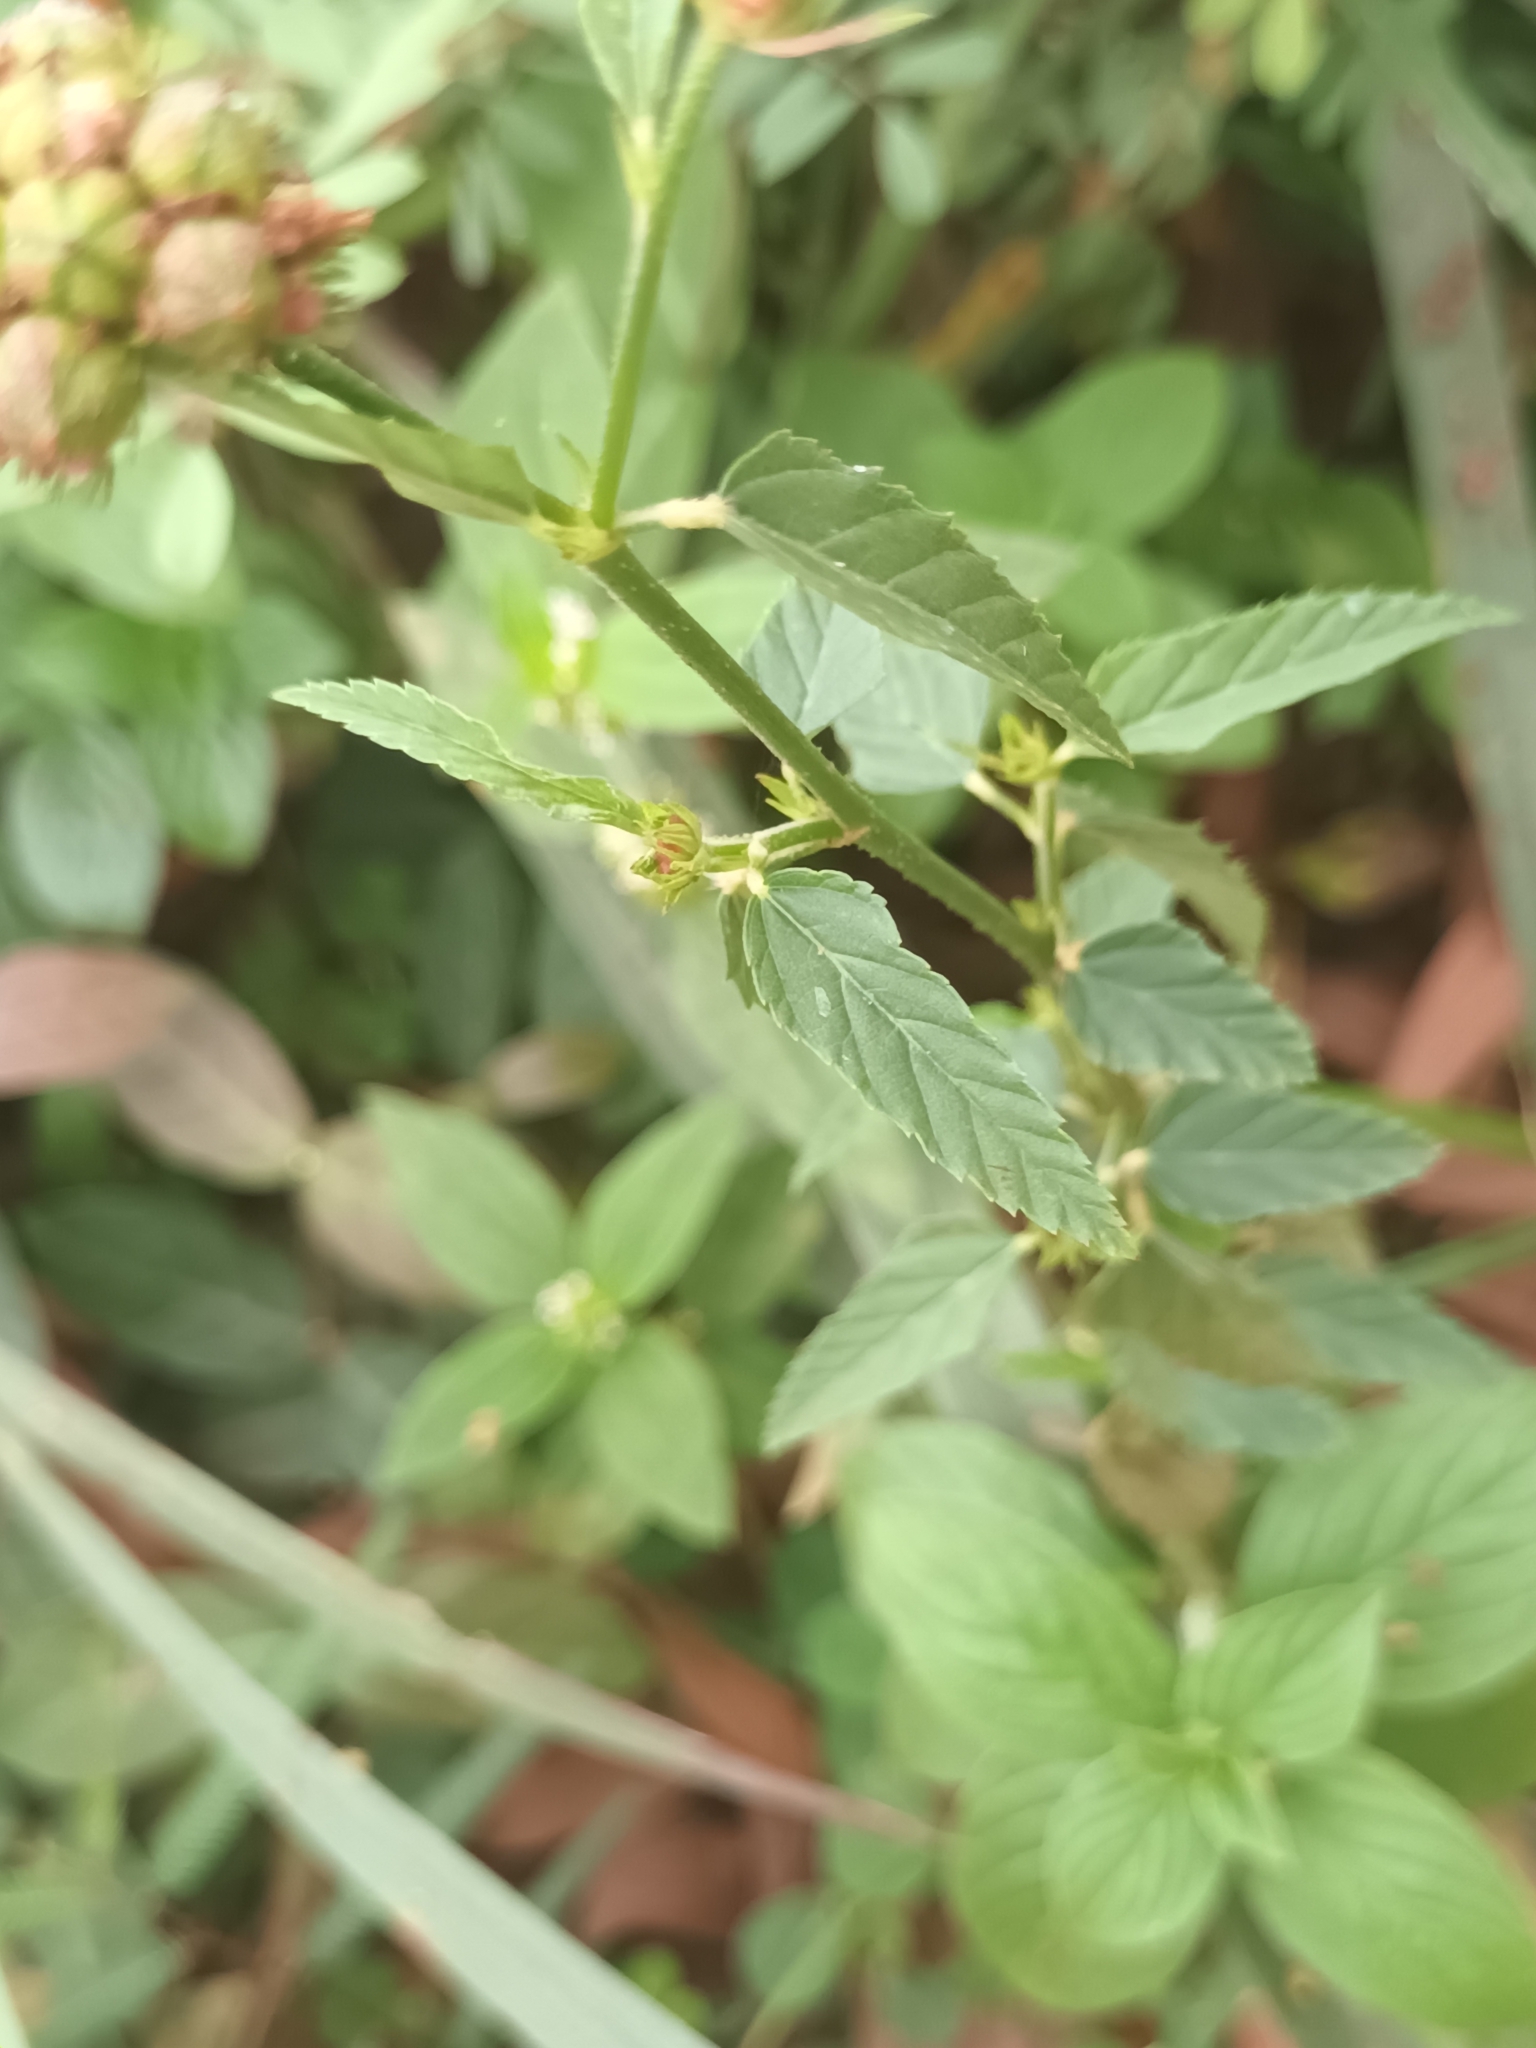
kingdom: Plantae
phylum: Tracheophyta
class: Magnoliopsida
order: Malvales
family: Malvaceae
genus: Melochia
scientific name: Melochia corchorifolia
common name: Chocolateweed
